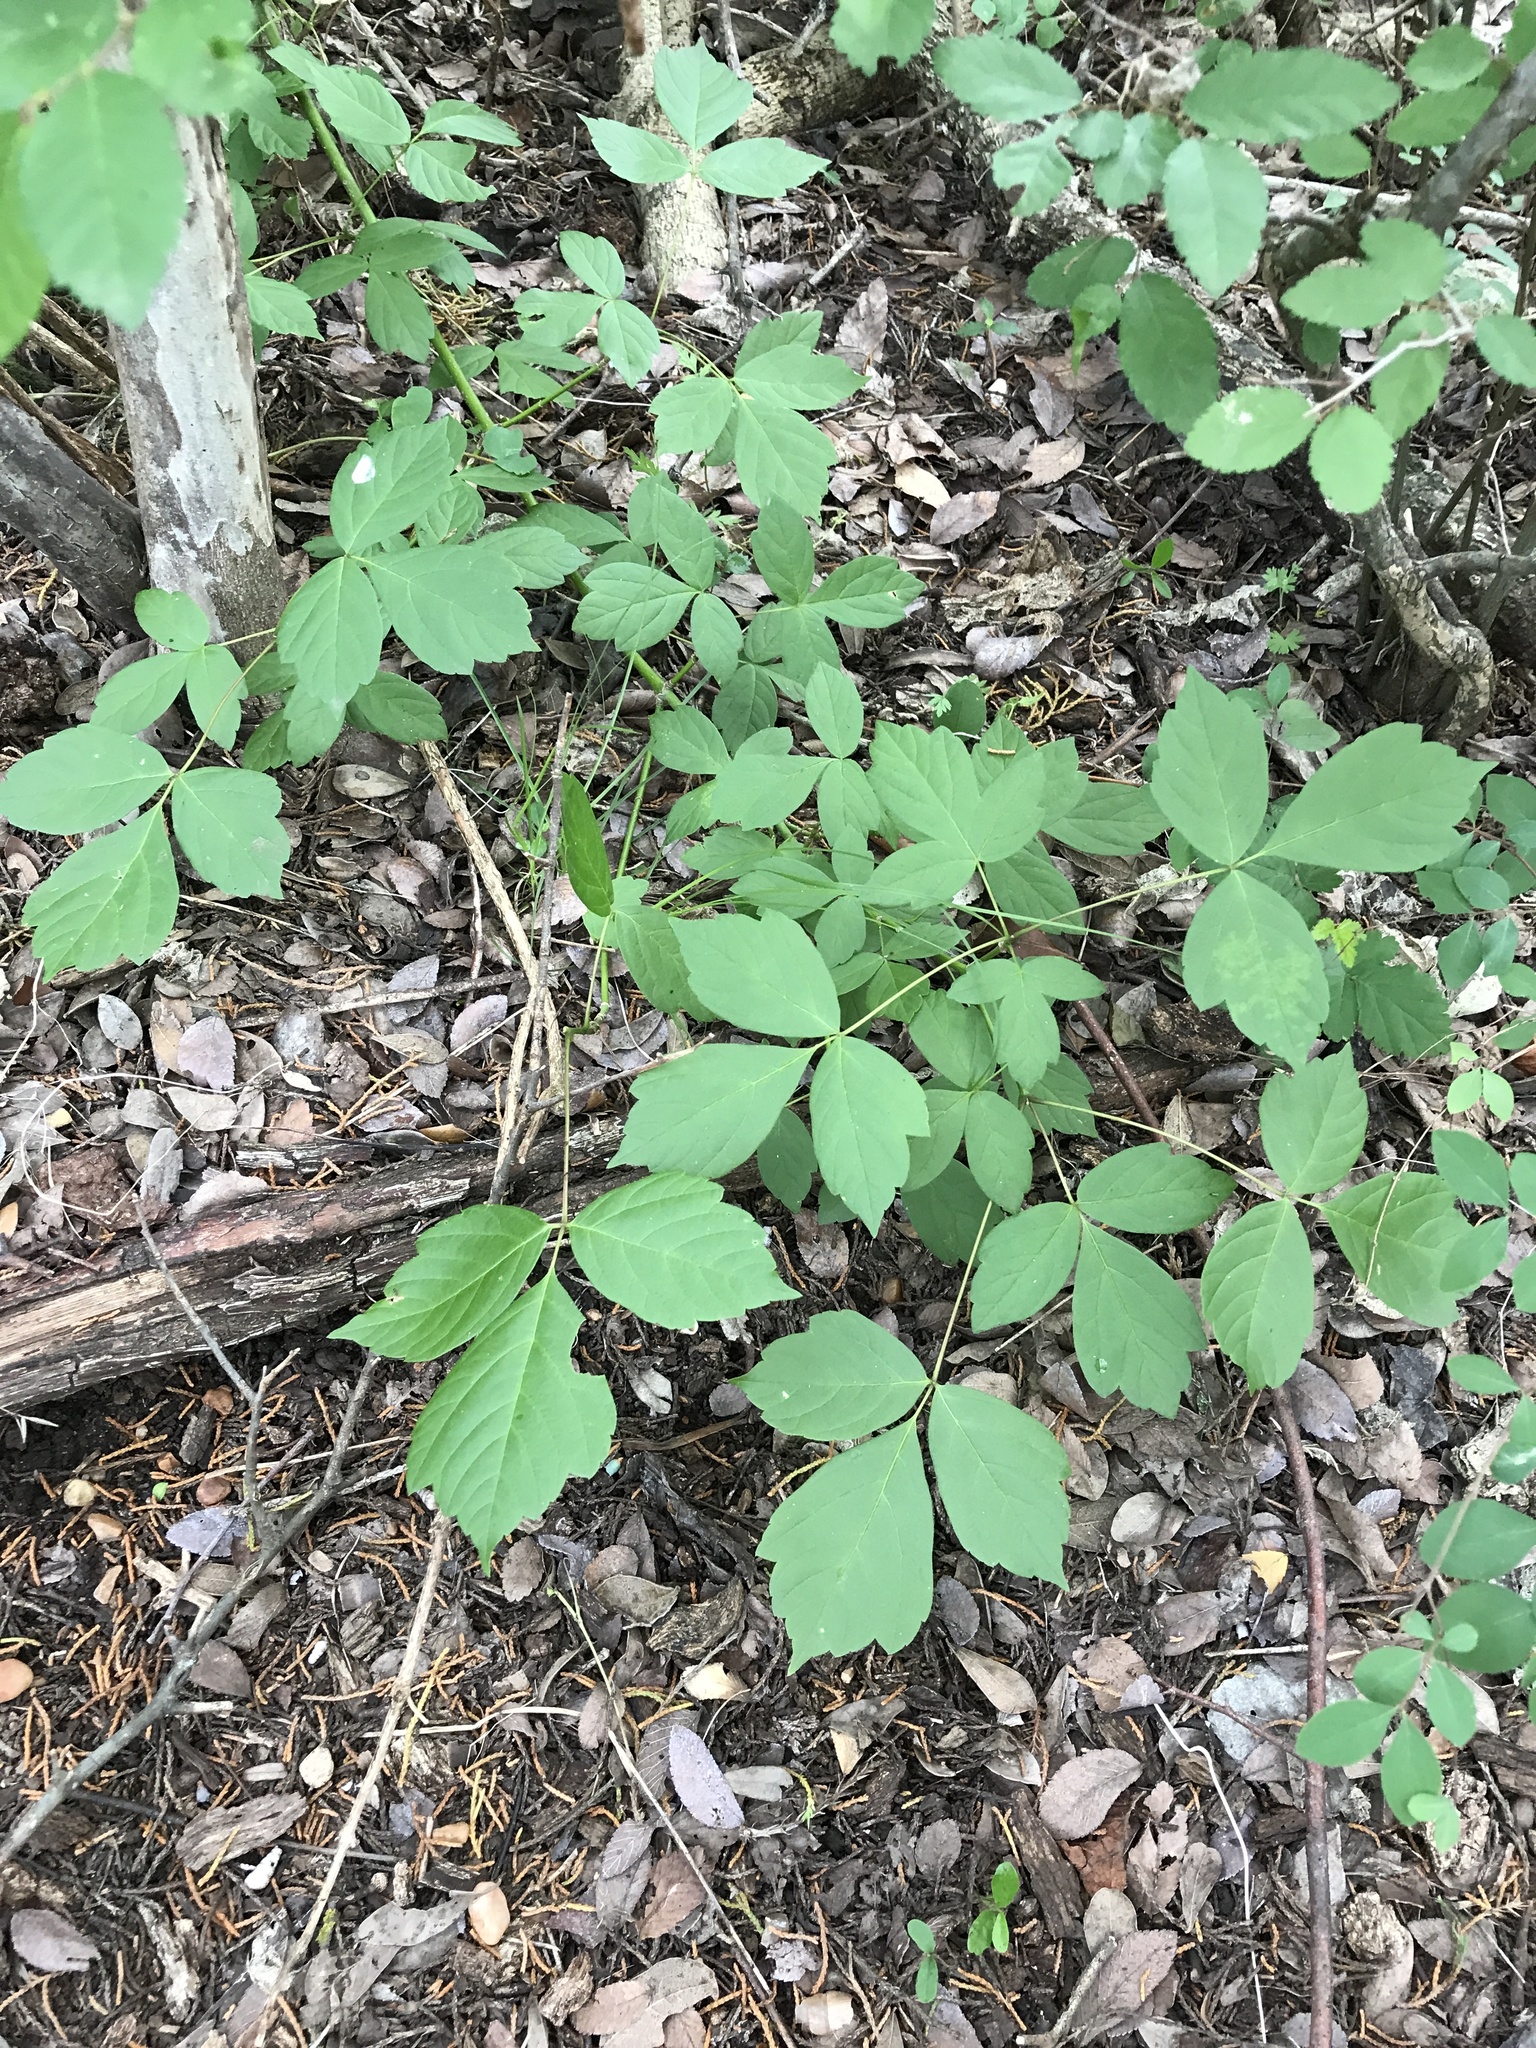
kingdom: Plantae
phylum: Tracheophyta
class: Magnoliopsida
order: Sapindales
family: Sapindaceae
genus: Acer
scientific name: Acer negundo
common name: Ashleaf maple
